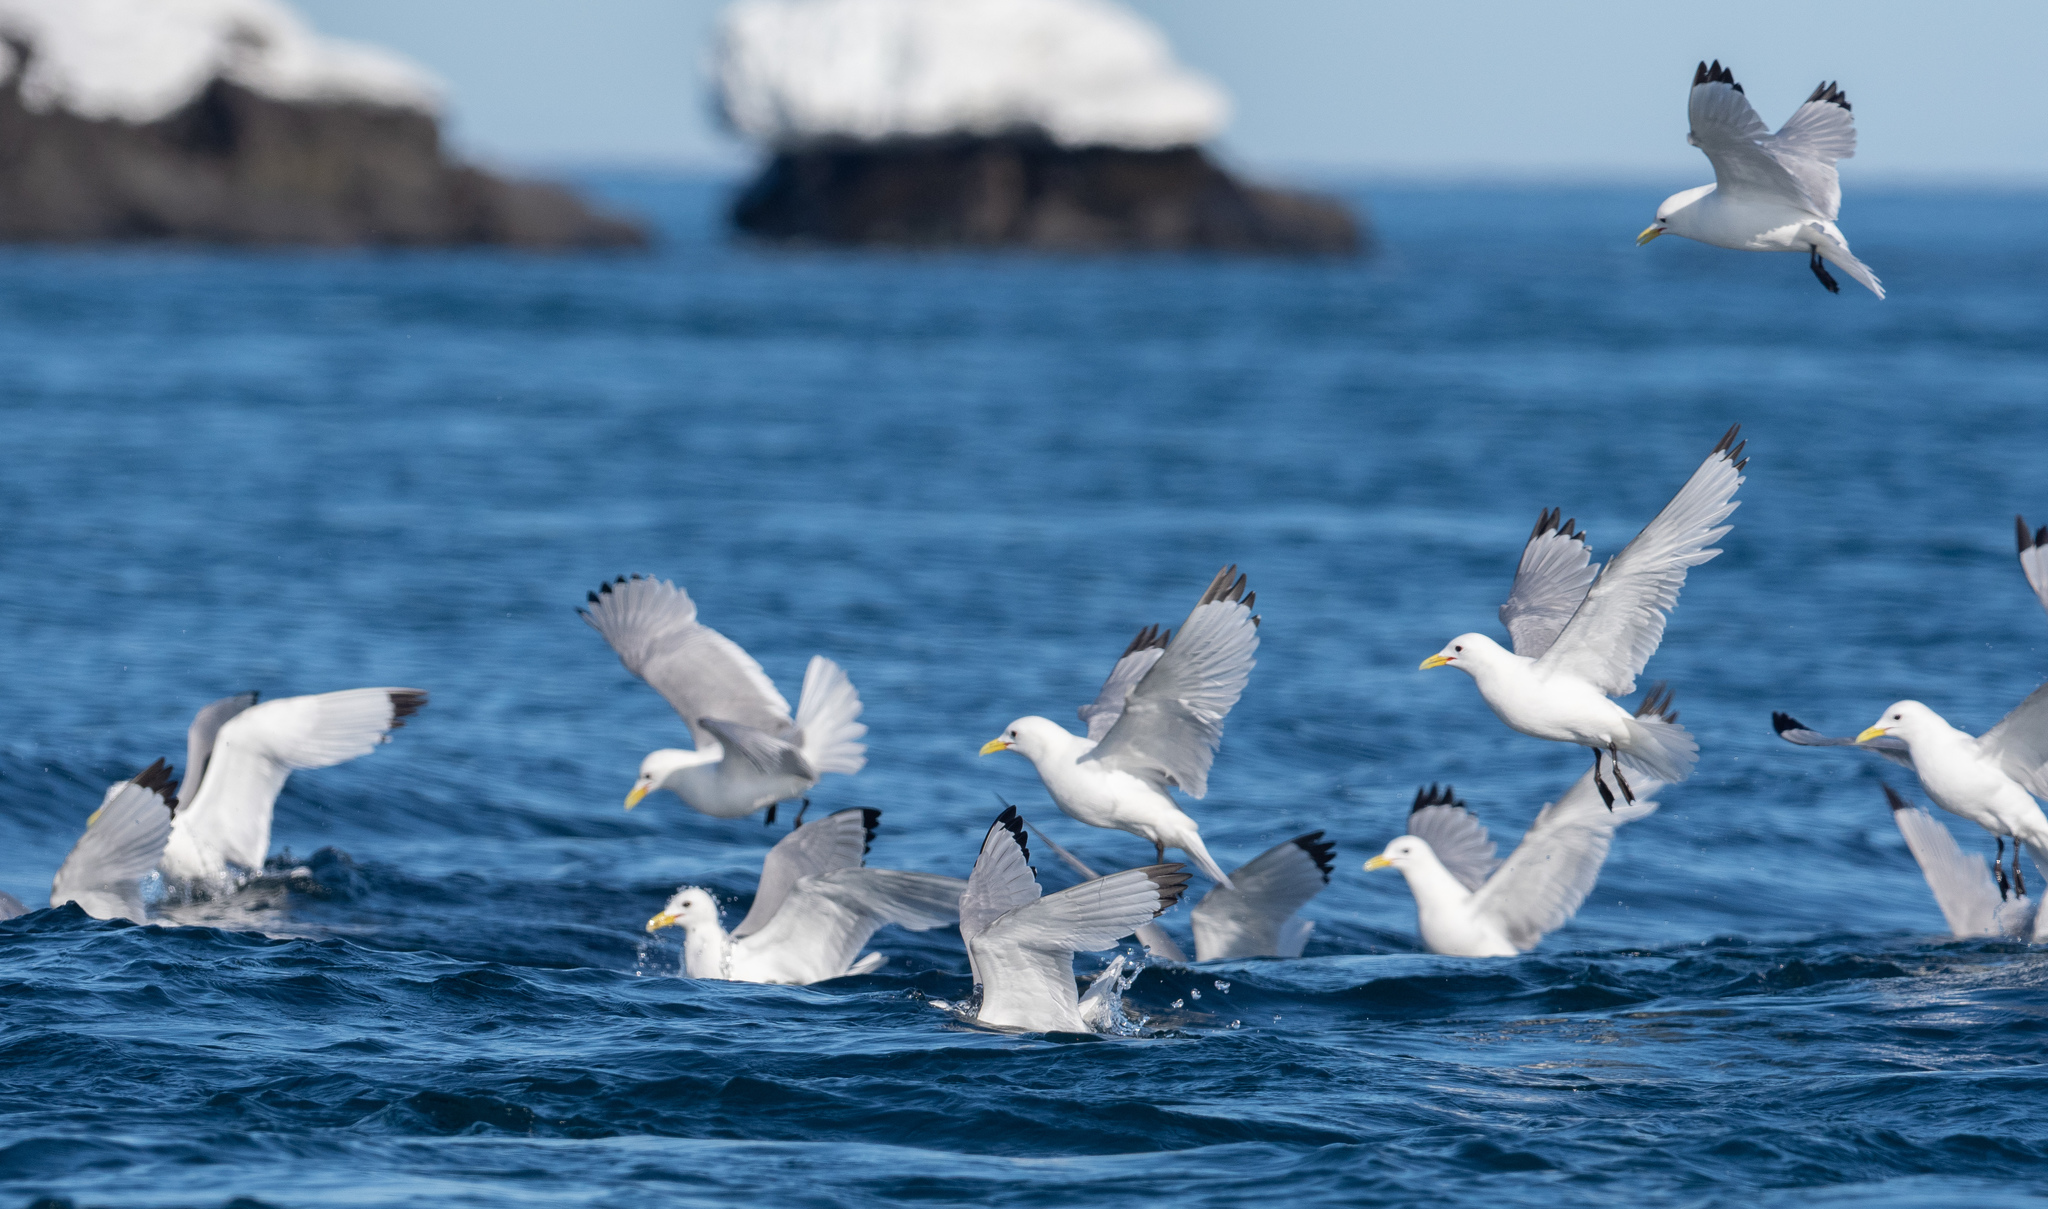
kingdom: Animalia
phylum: Chordata
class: Aves
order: Charadriiformes
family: Laridae
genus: Rissa
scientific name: Rissa tridactyla
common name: Black-legged kittiwake
